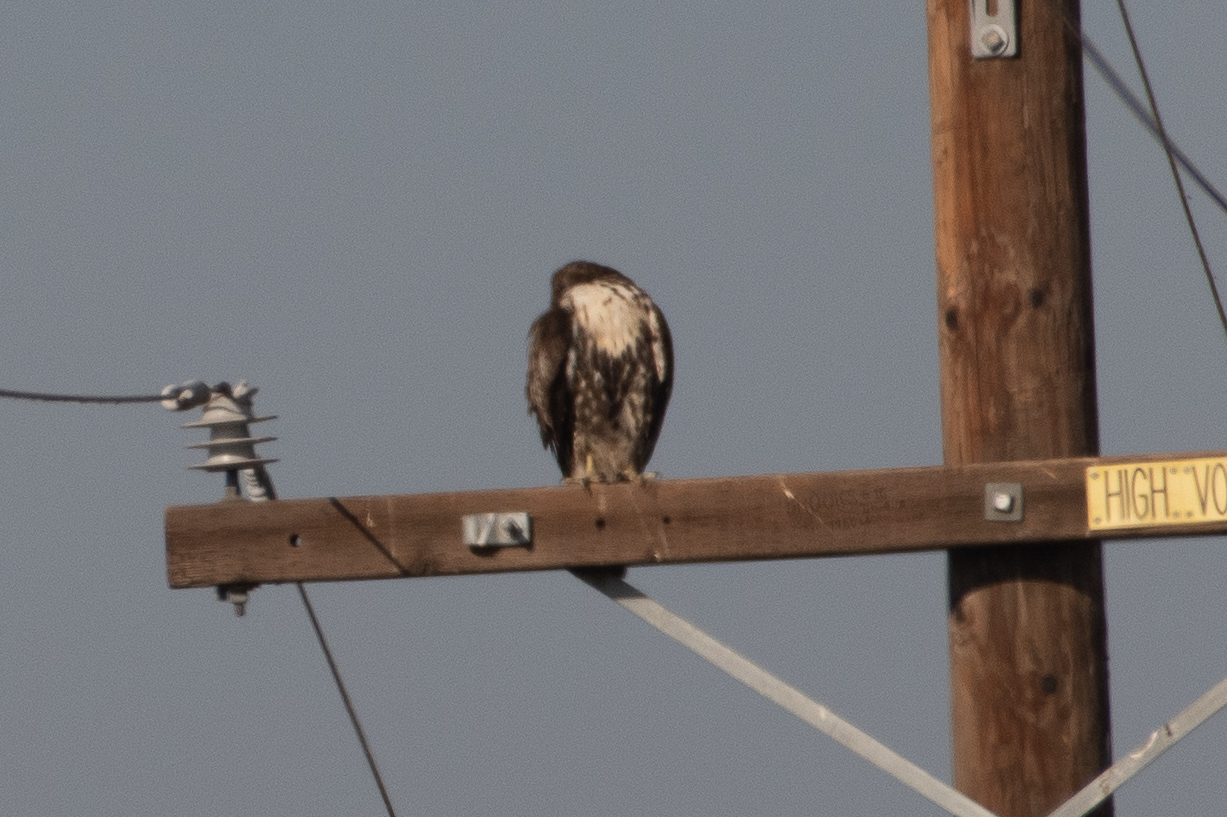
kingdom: Animalia
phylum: Chordata
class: Aves
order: Accipitriformes
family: Accipitridae
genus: Buteo
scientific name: Buteo jamaicensis
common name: Red-tailed hawk
